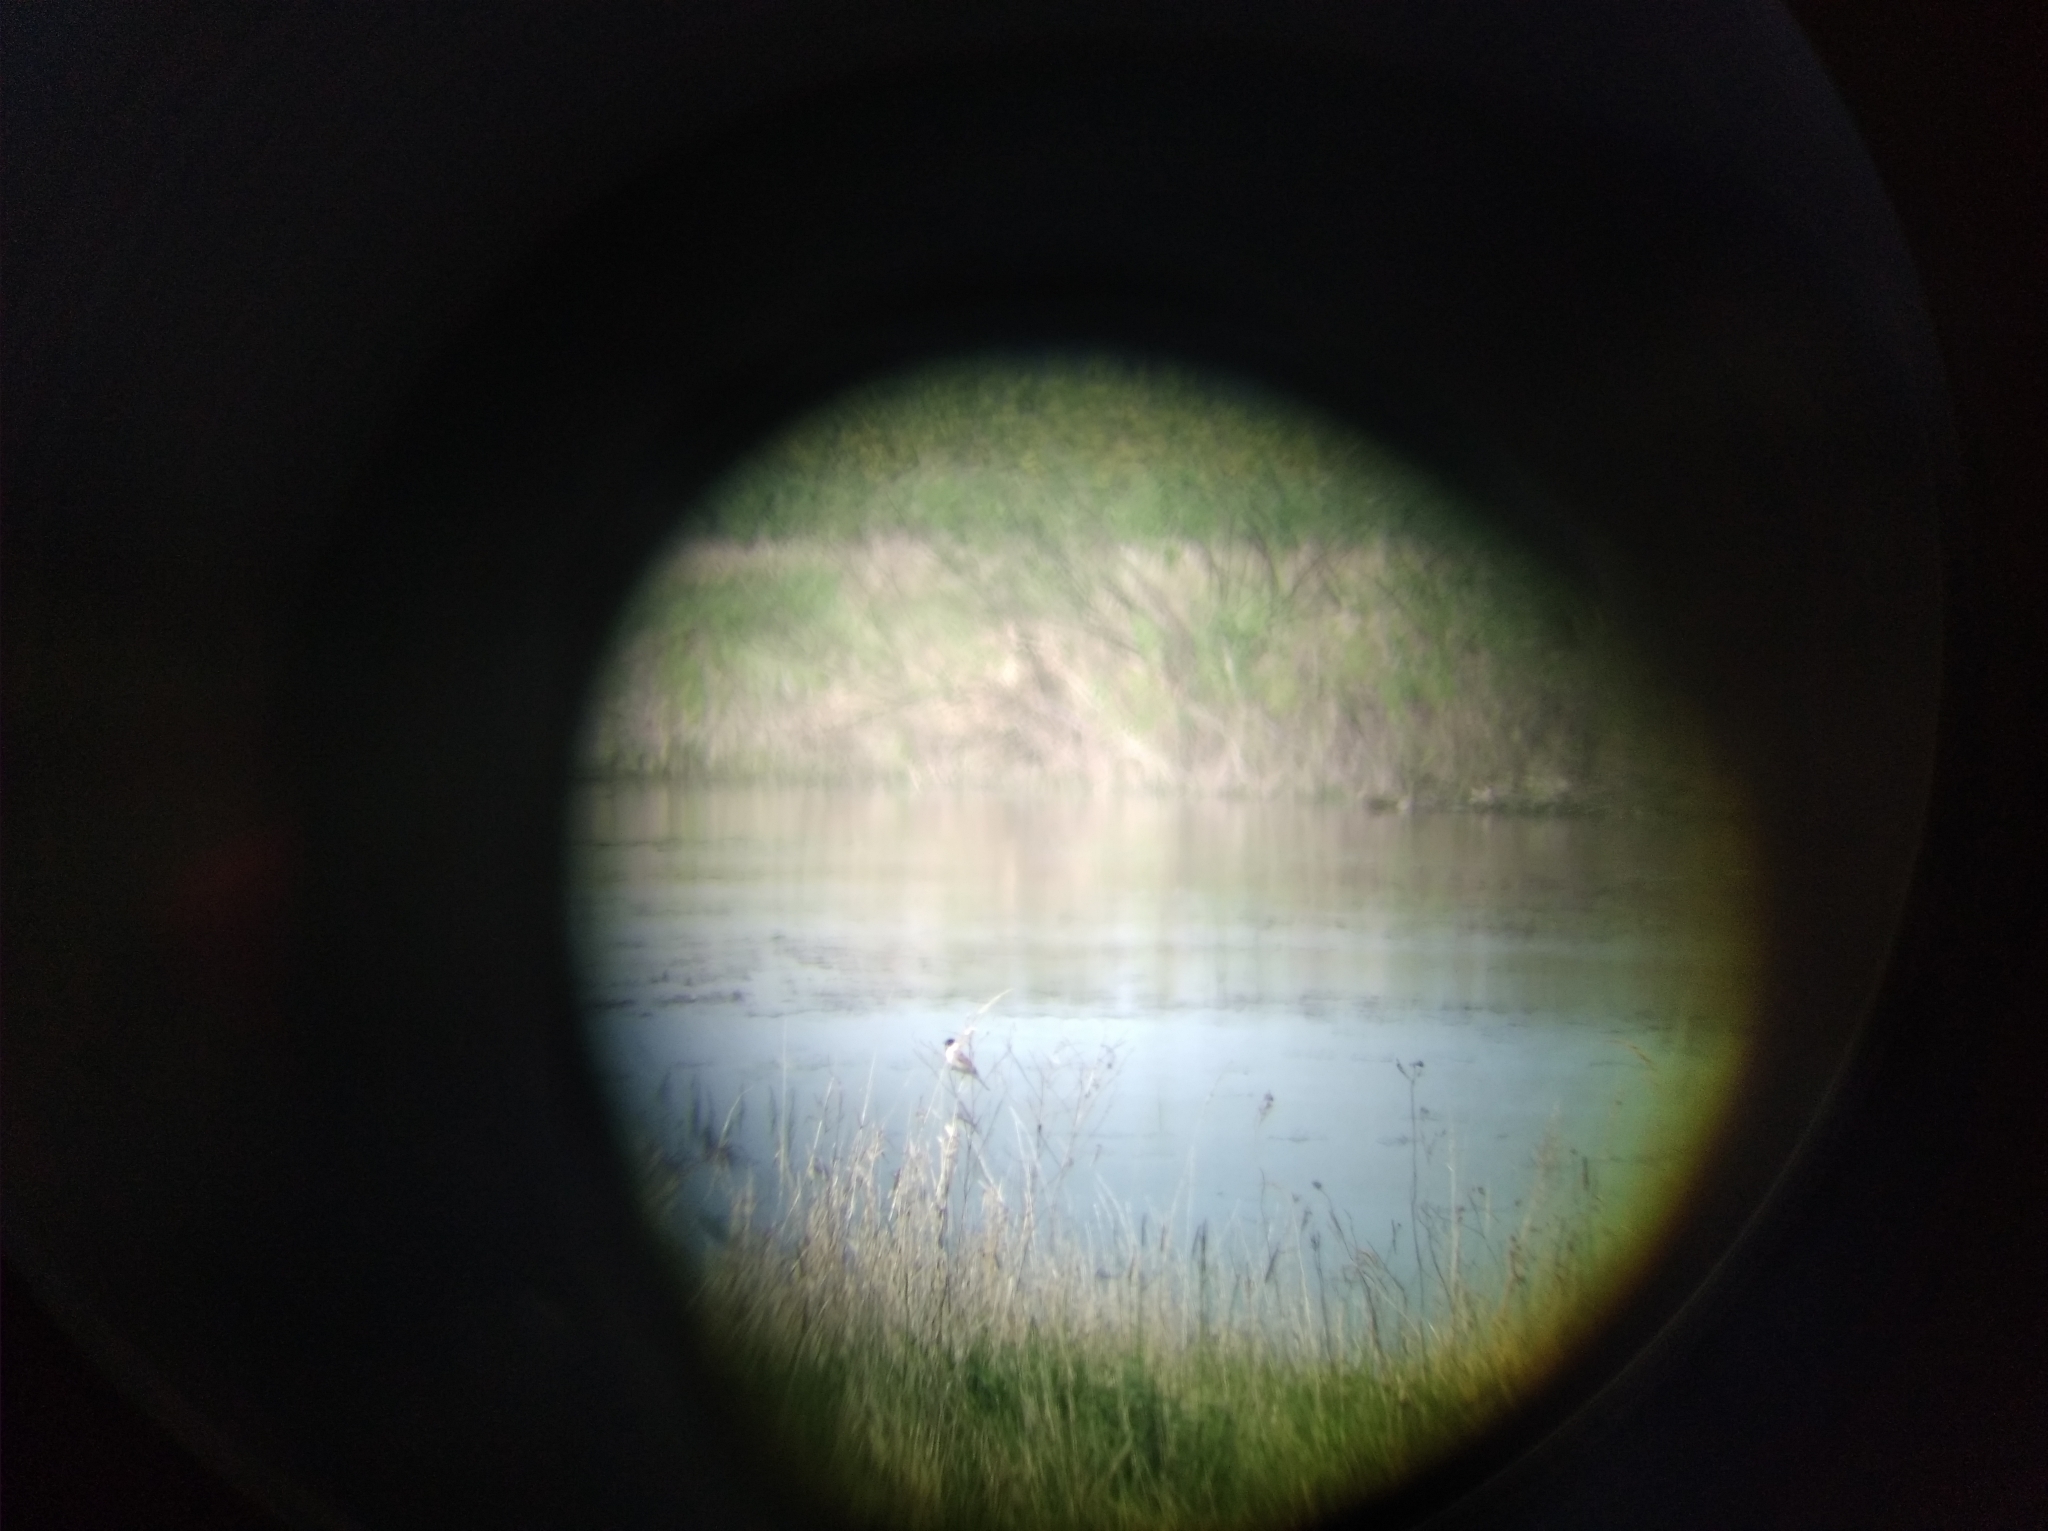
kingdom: Animalia
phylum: Chordata
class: Aves
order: Passeriformes
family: Emberizidae
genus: Emberiza
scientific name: Emberiza schoeniclus
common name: Reed bunting
